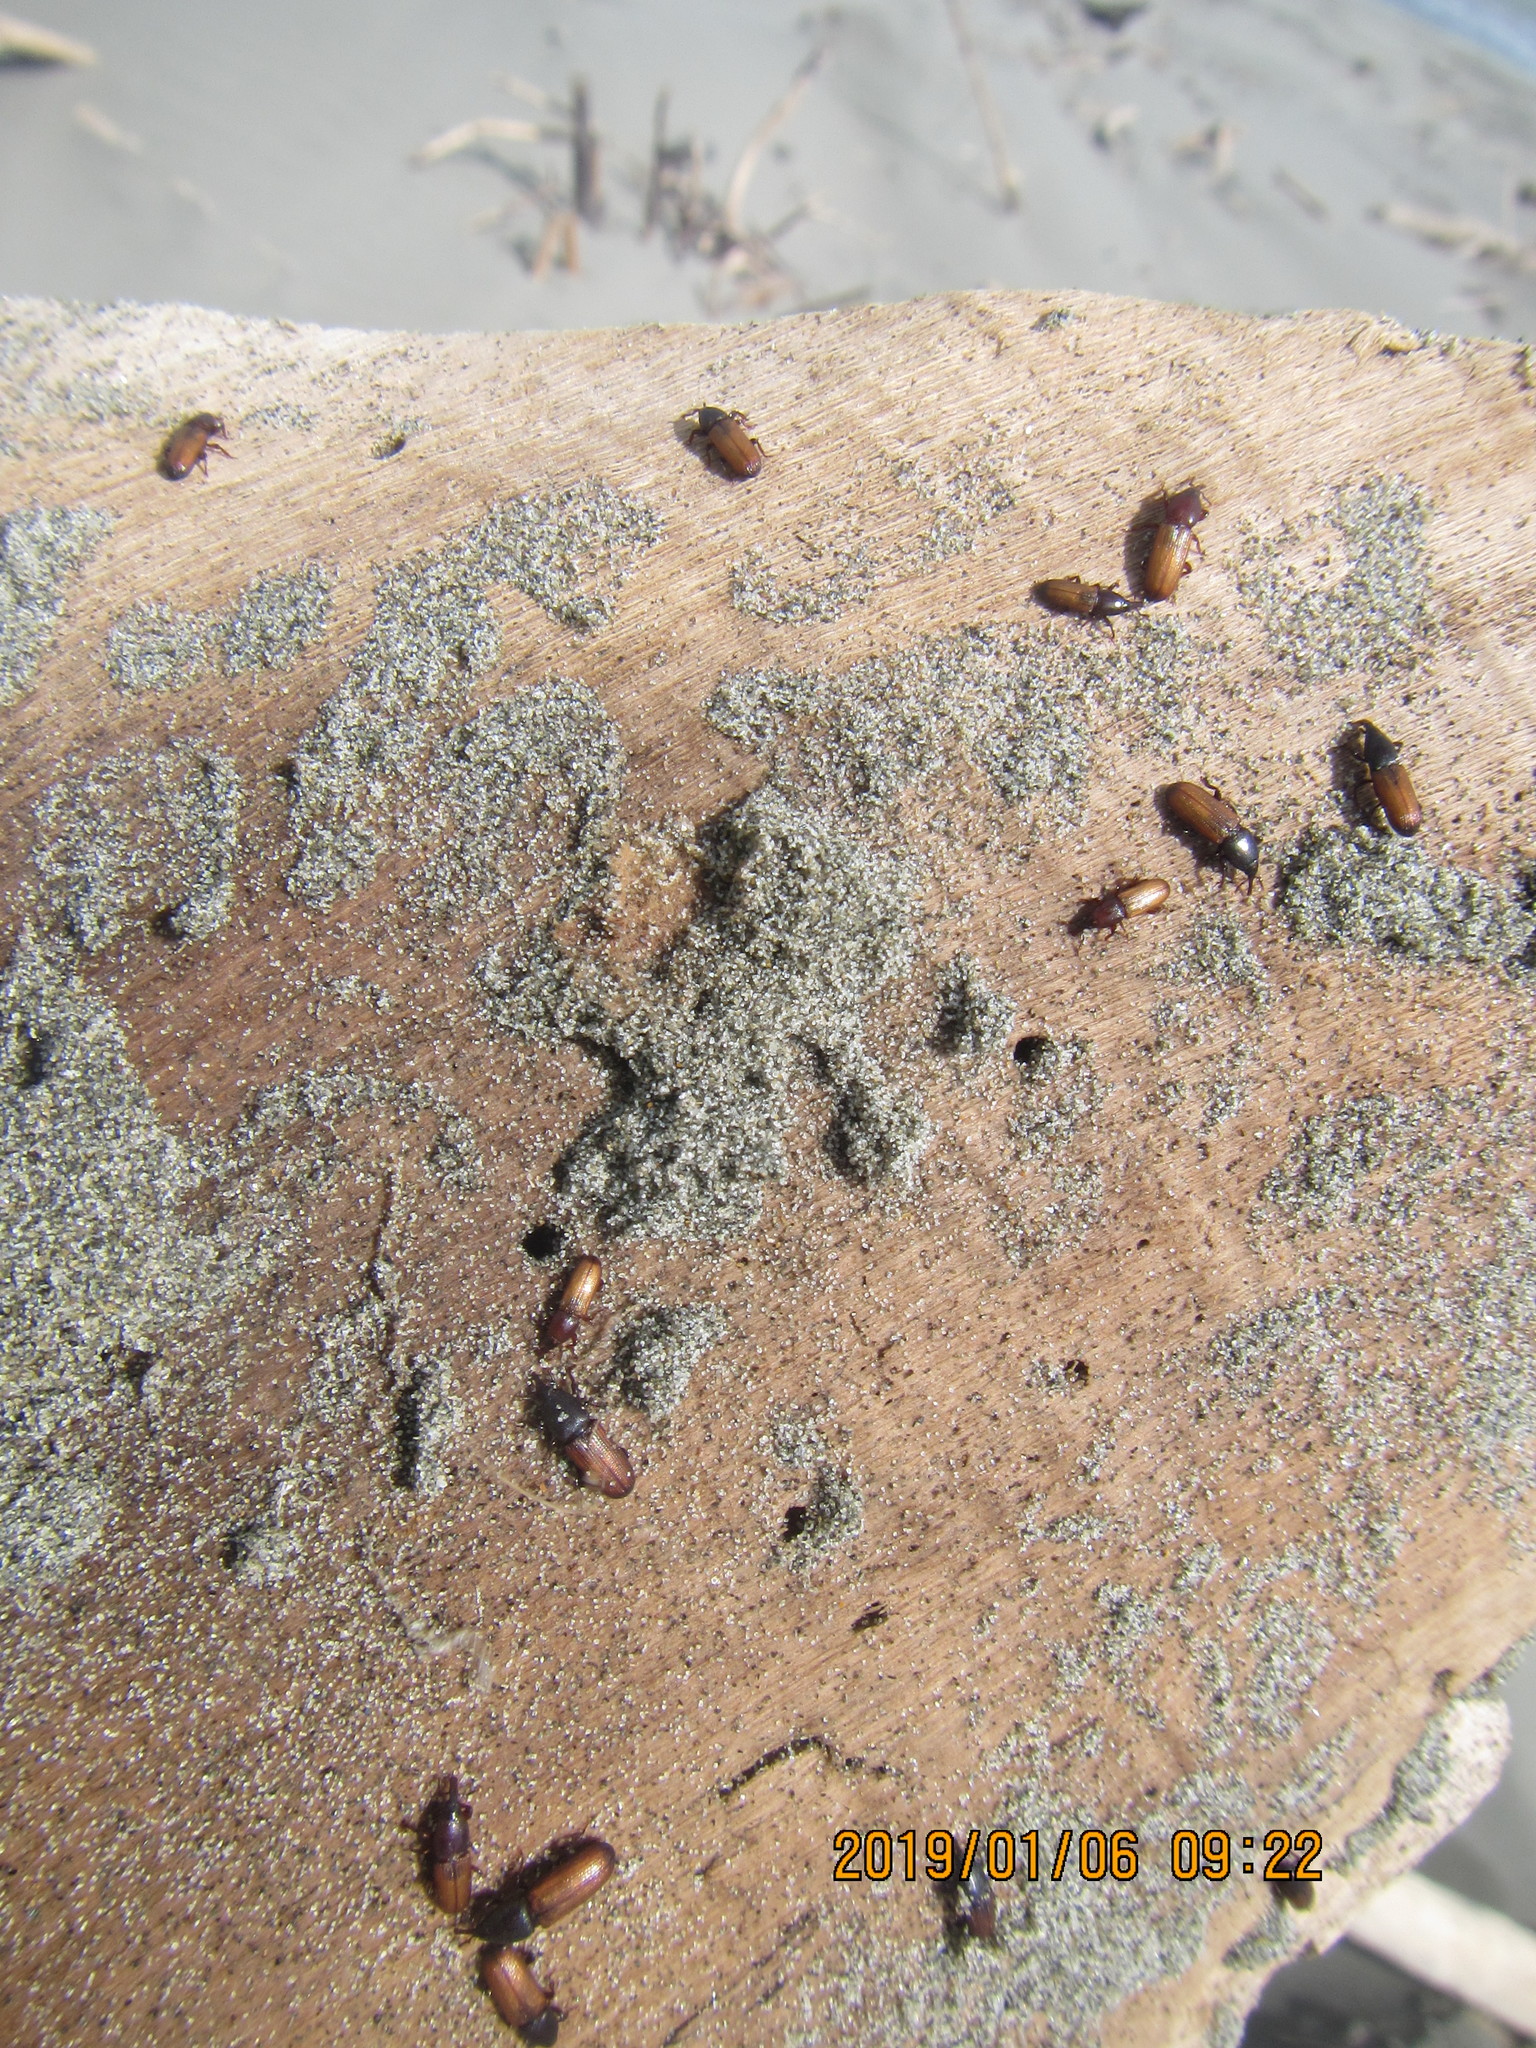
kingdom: Animalia
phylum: Arthropoda
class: Insecta
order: Coleoptera
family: Curculionidae
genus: Mesites
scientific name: Mesites pallidipennis
